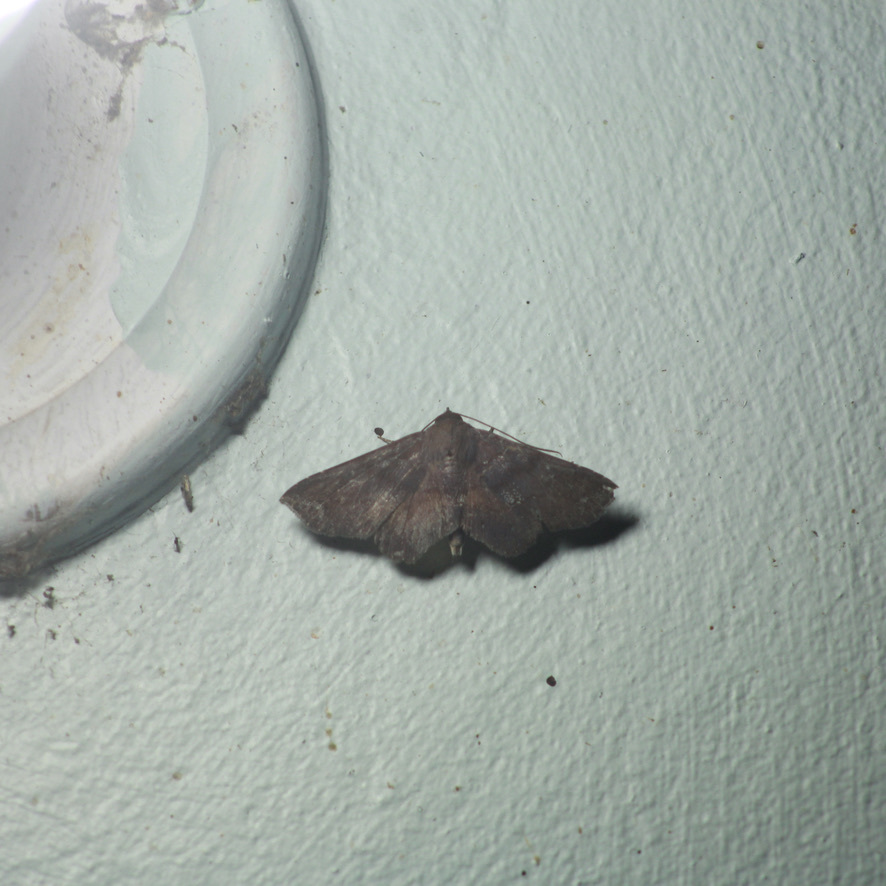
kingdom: Animalia
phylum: Arthropoda
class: Insecta
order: Lepidoptera
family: Erebidae
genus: Gabyna
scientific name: Gabyna placida
